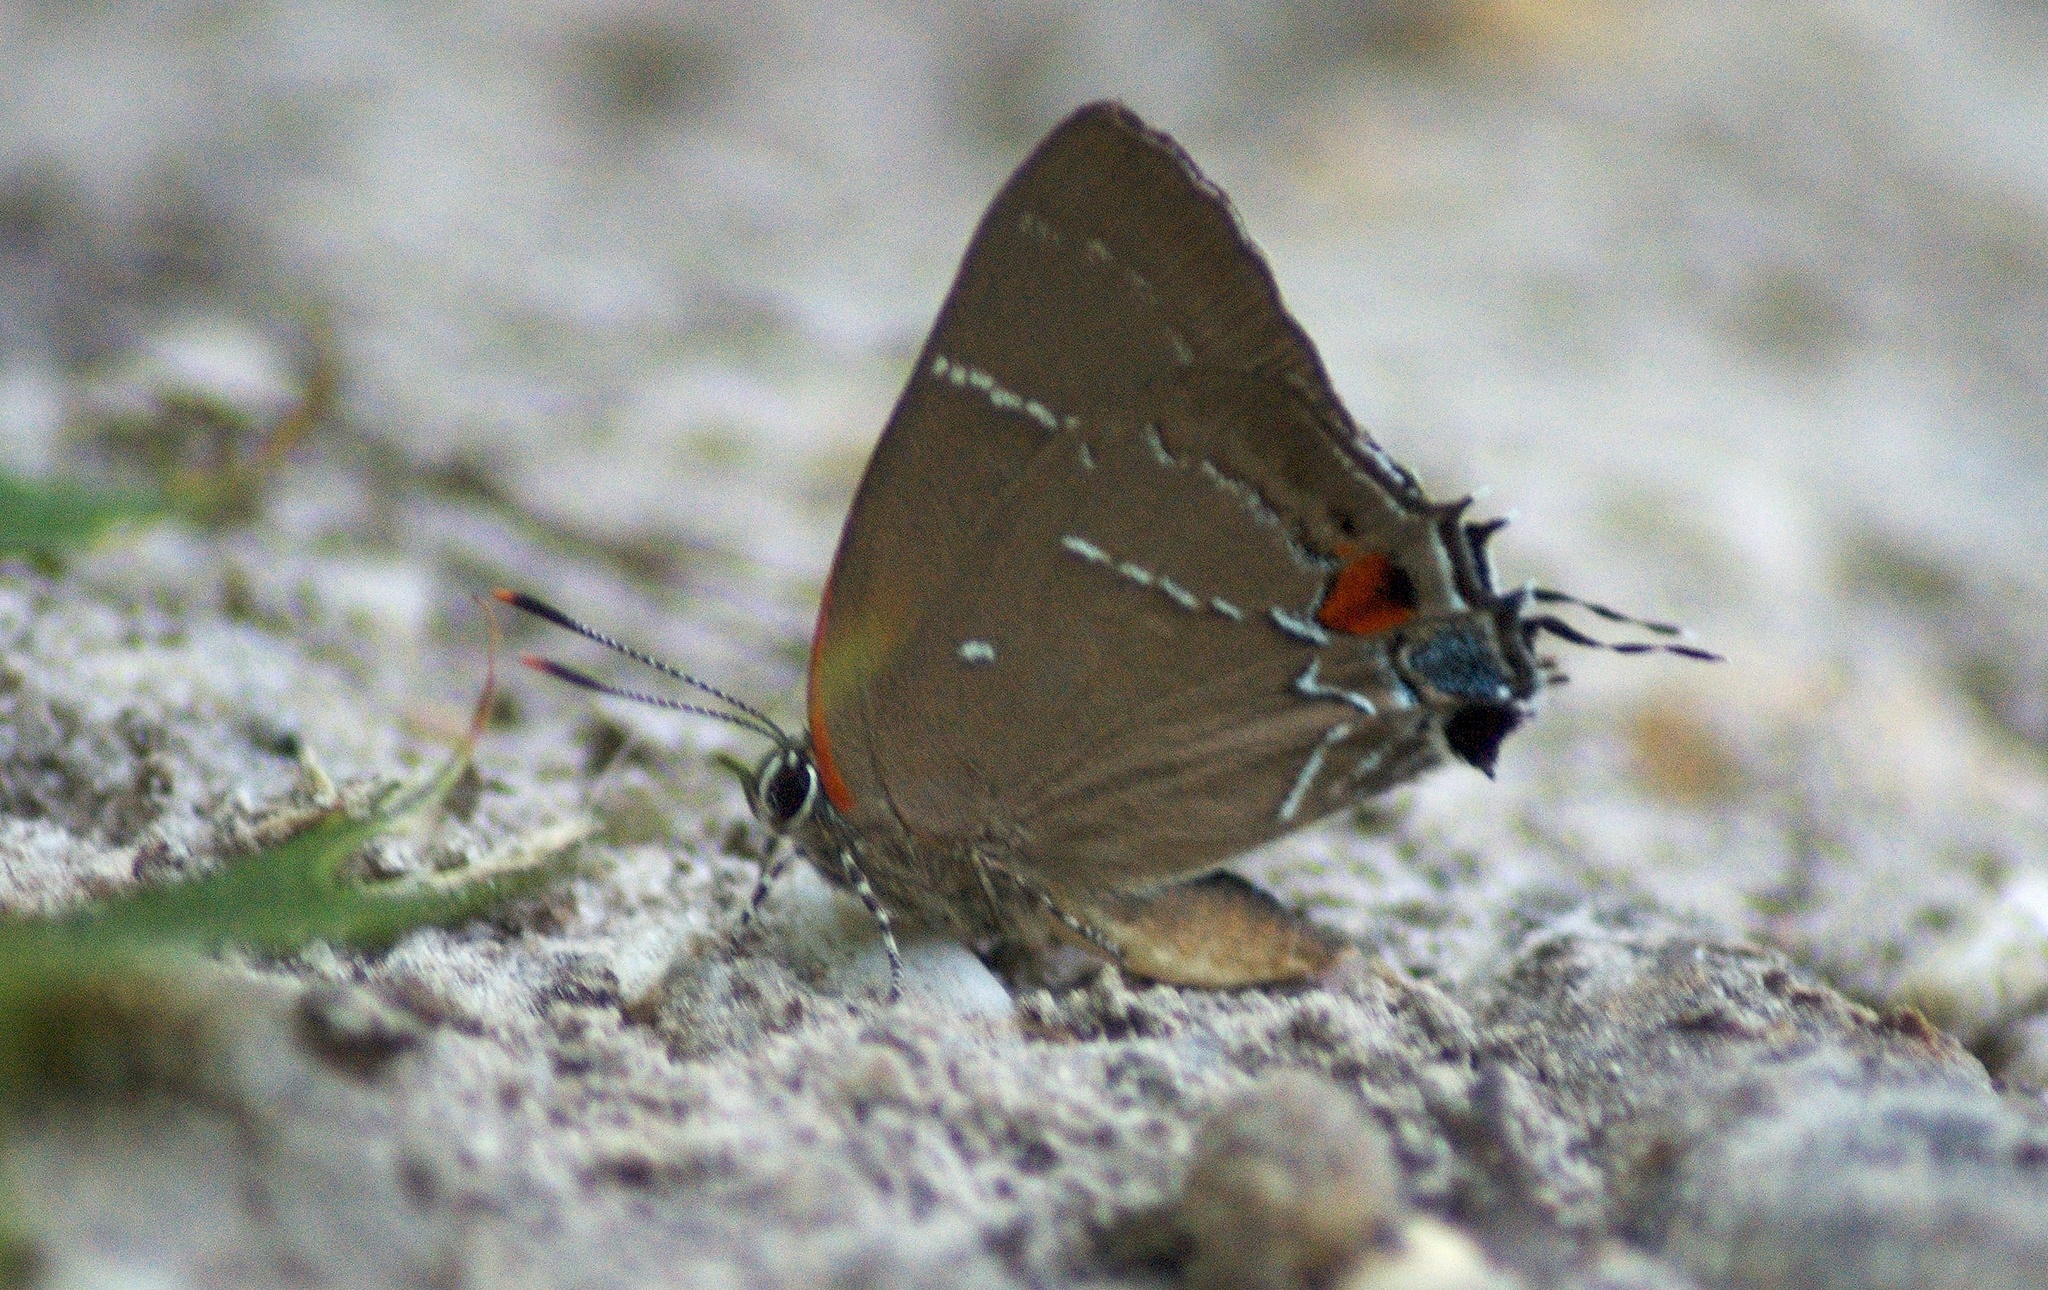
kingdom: Animalia
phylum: Arthropoda
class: Insecta
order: Lepidoptera
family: Lycaenidae
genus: Parrhasius
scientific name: Parrhasius m-album
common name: White m hairstreak
